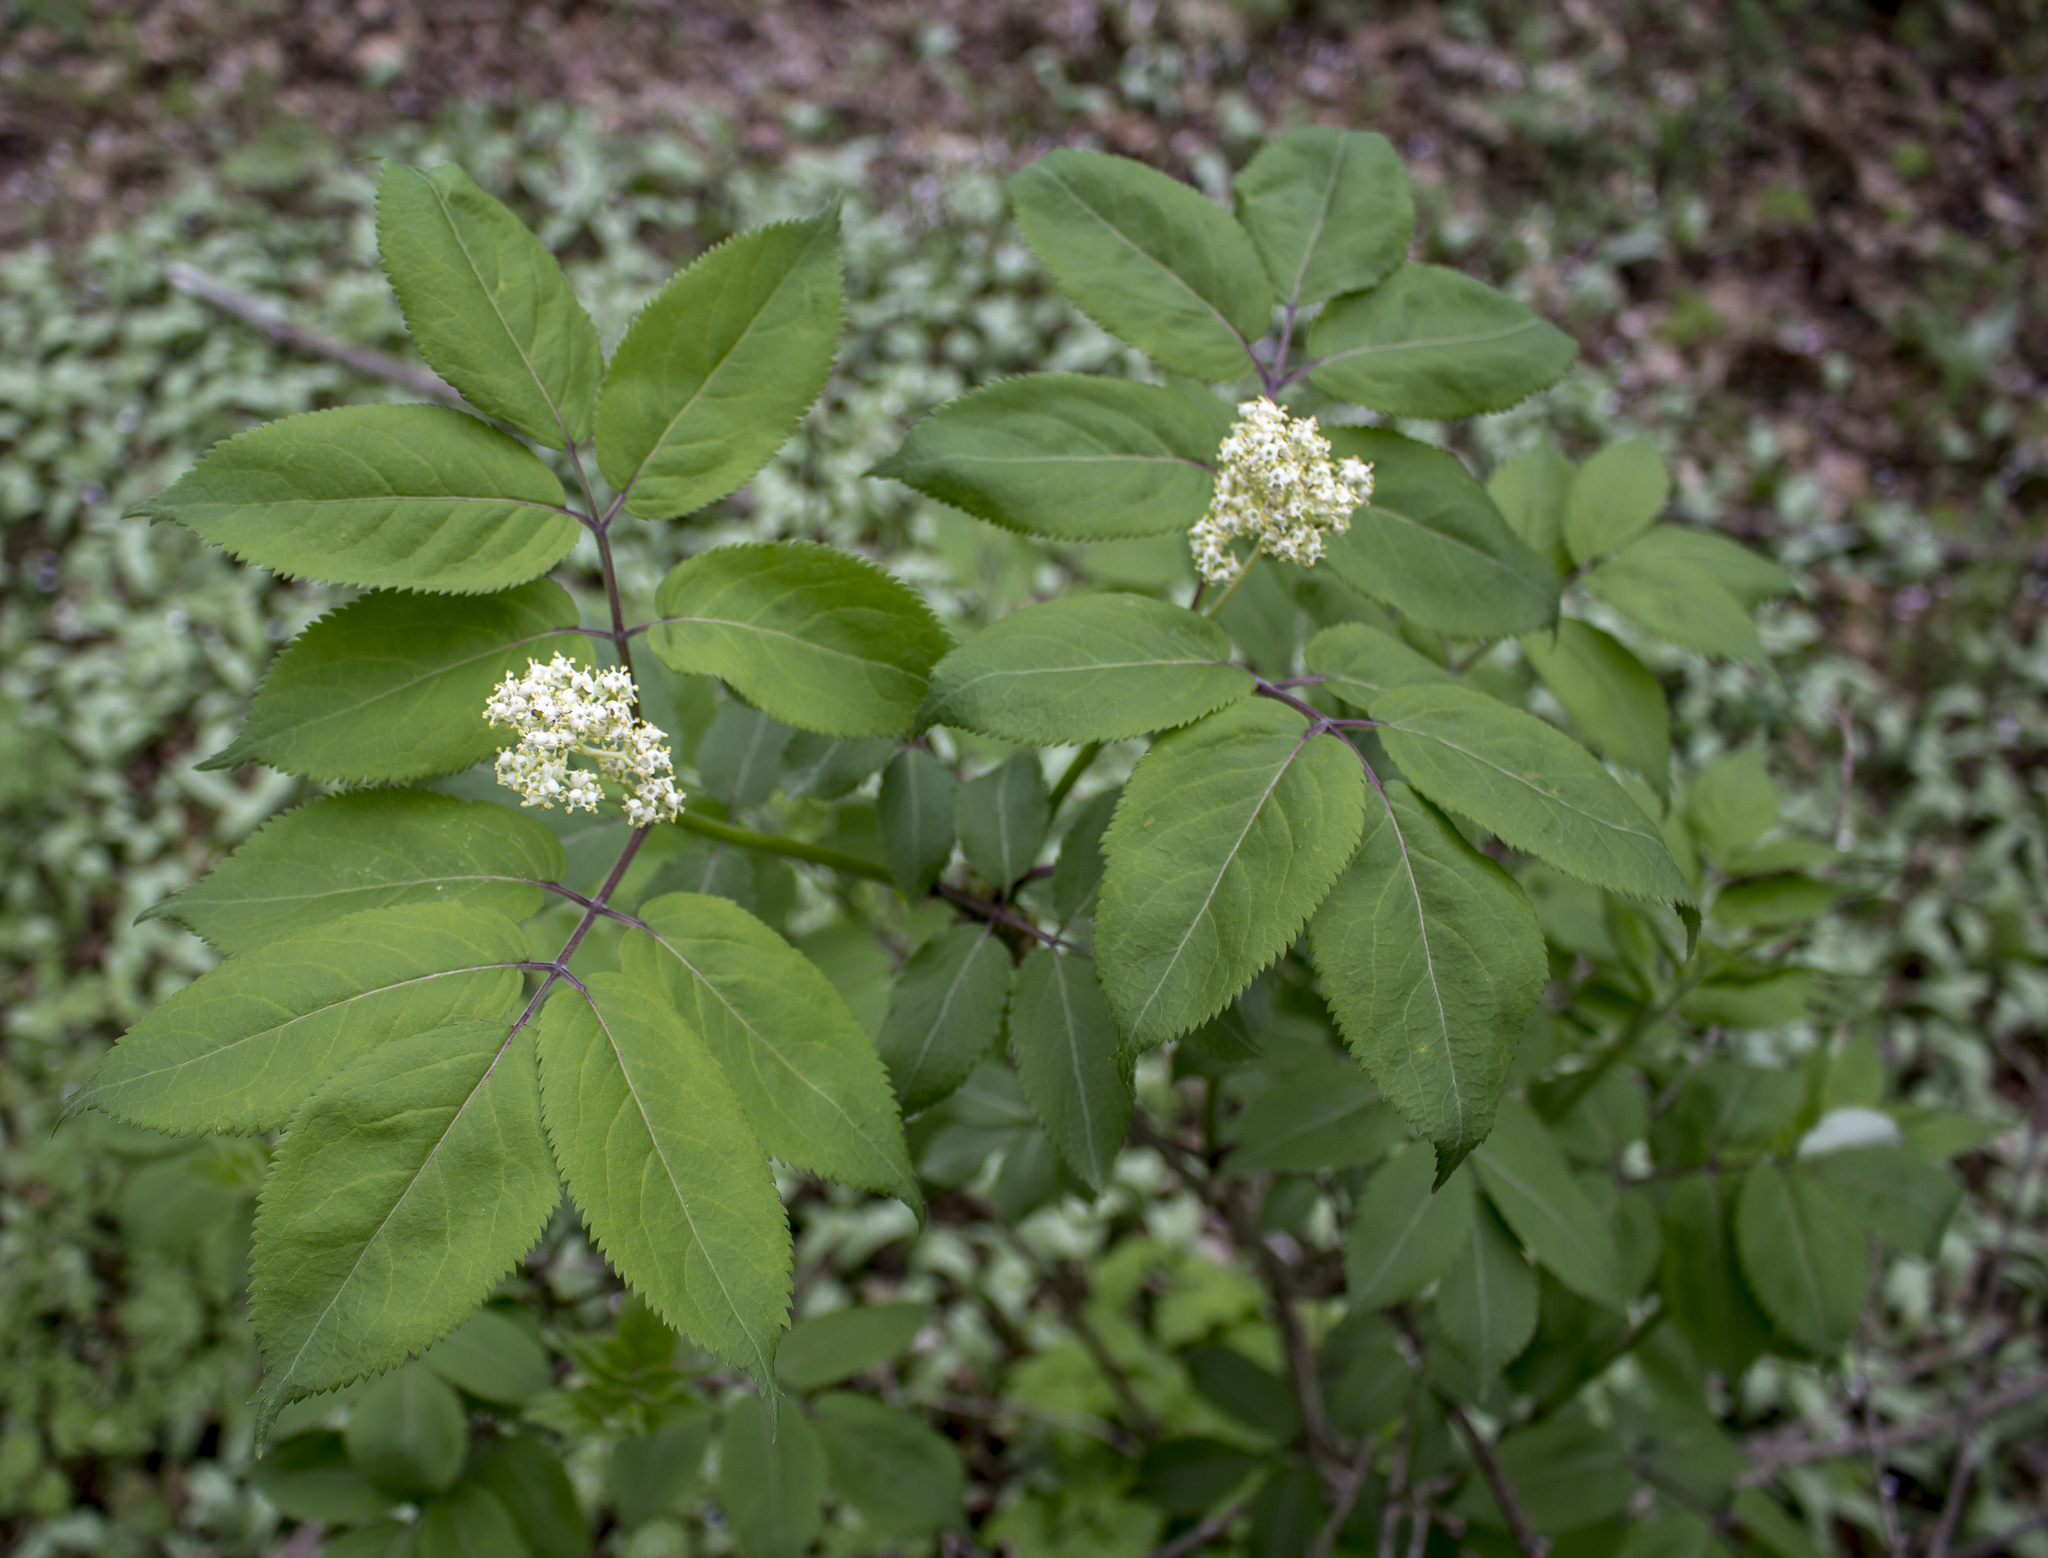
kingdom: Plantae
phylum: Tracheophyta
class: Magnoliopsida
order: Dipsacales
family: Viburnaceae
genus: Sambucus
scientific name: Sambucus racemosa
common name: Red-berried elder
